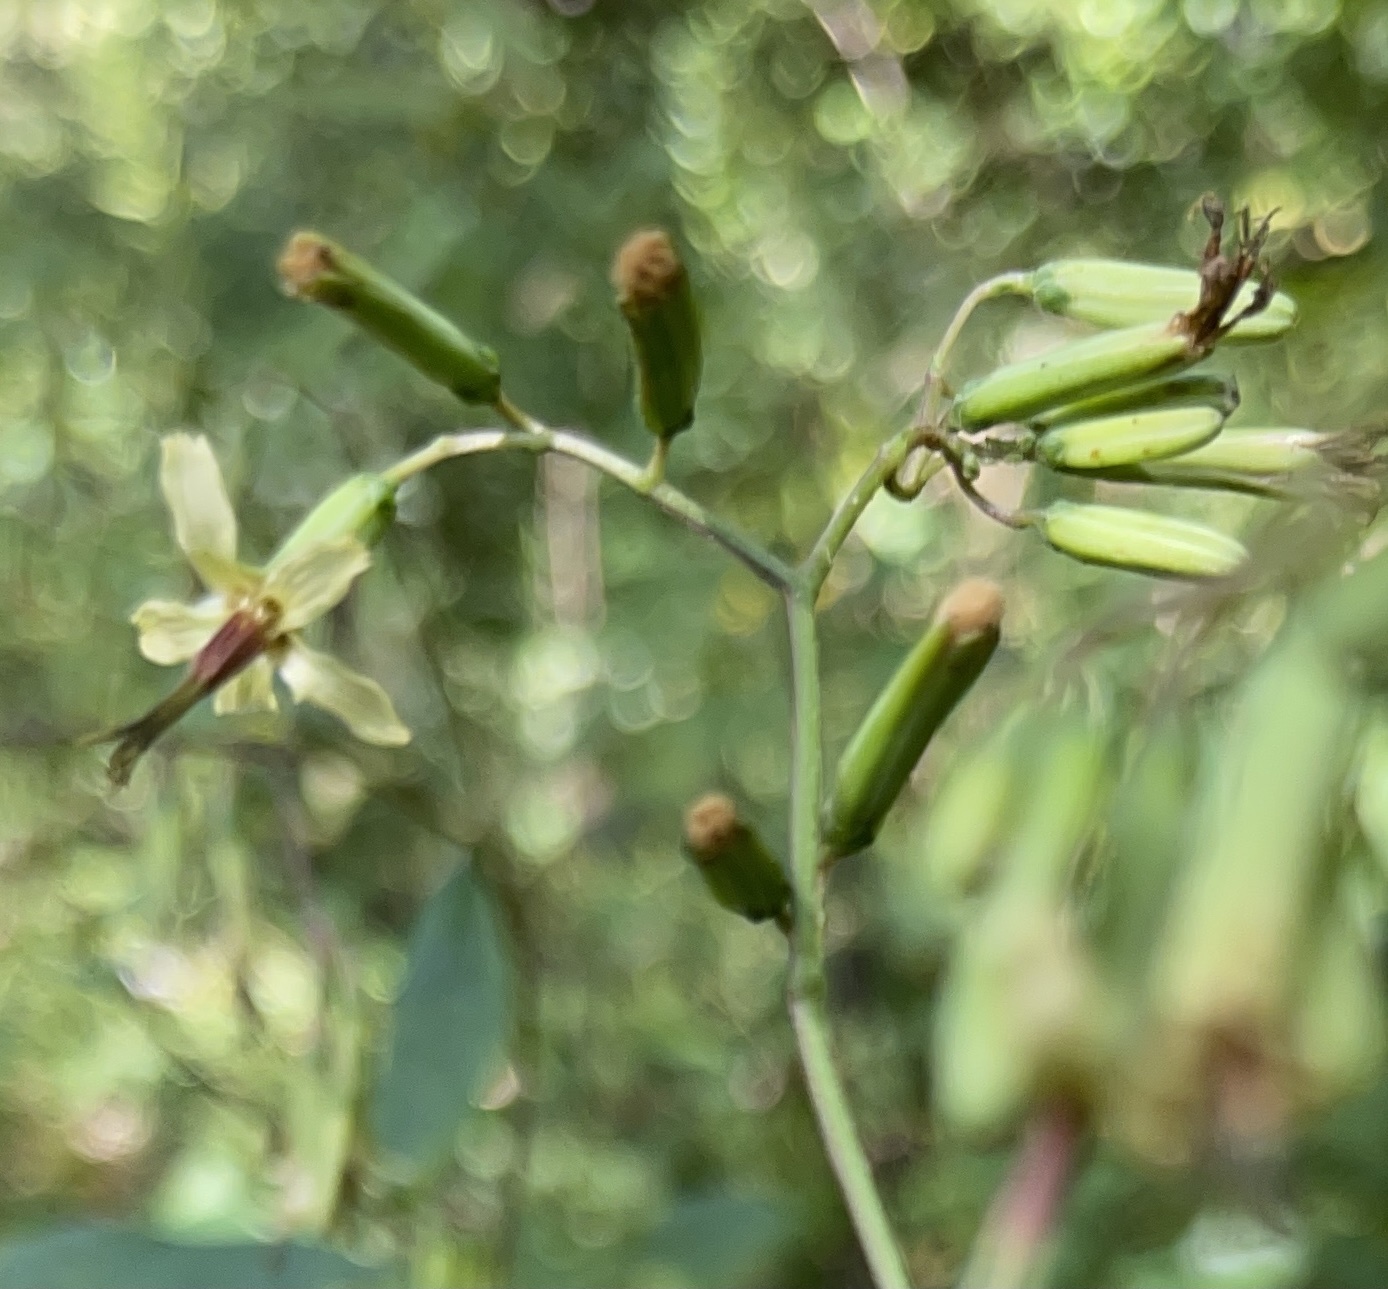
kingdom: Plantae
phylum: Tracheophyta
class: Magnoliopsida
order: Asterales
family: Asteraceae
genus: Nabalus
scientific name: Nabalus altissima
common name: Tall rattlesnakeroot
